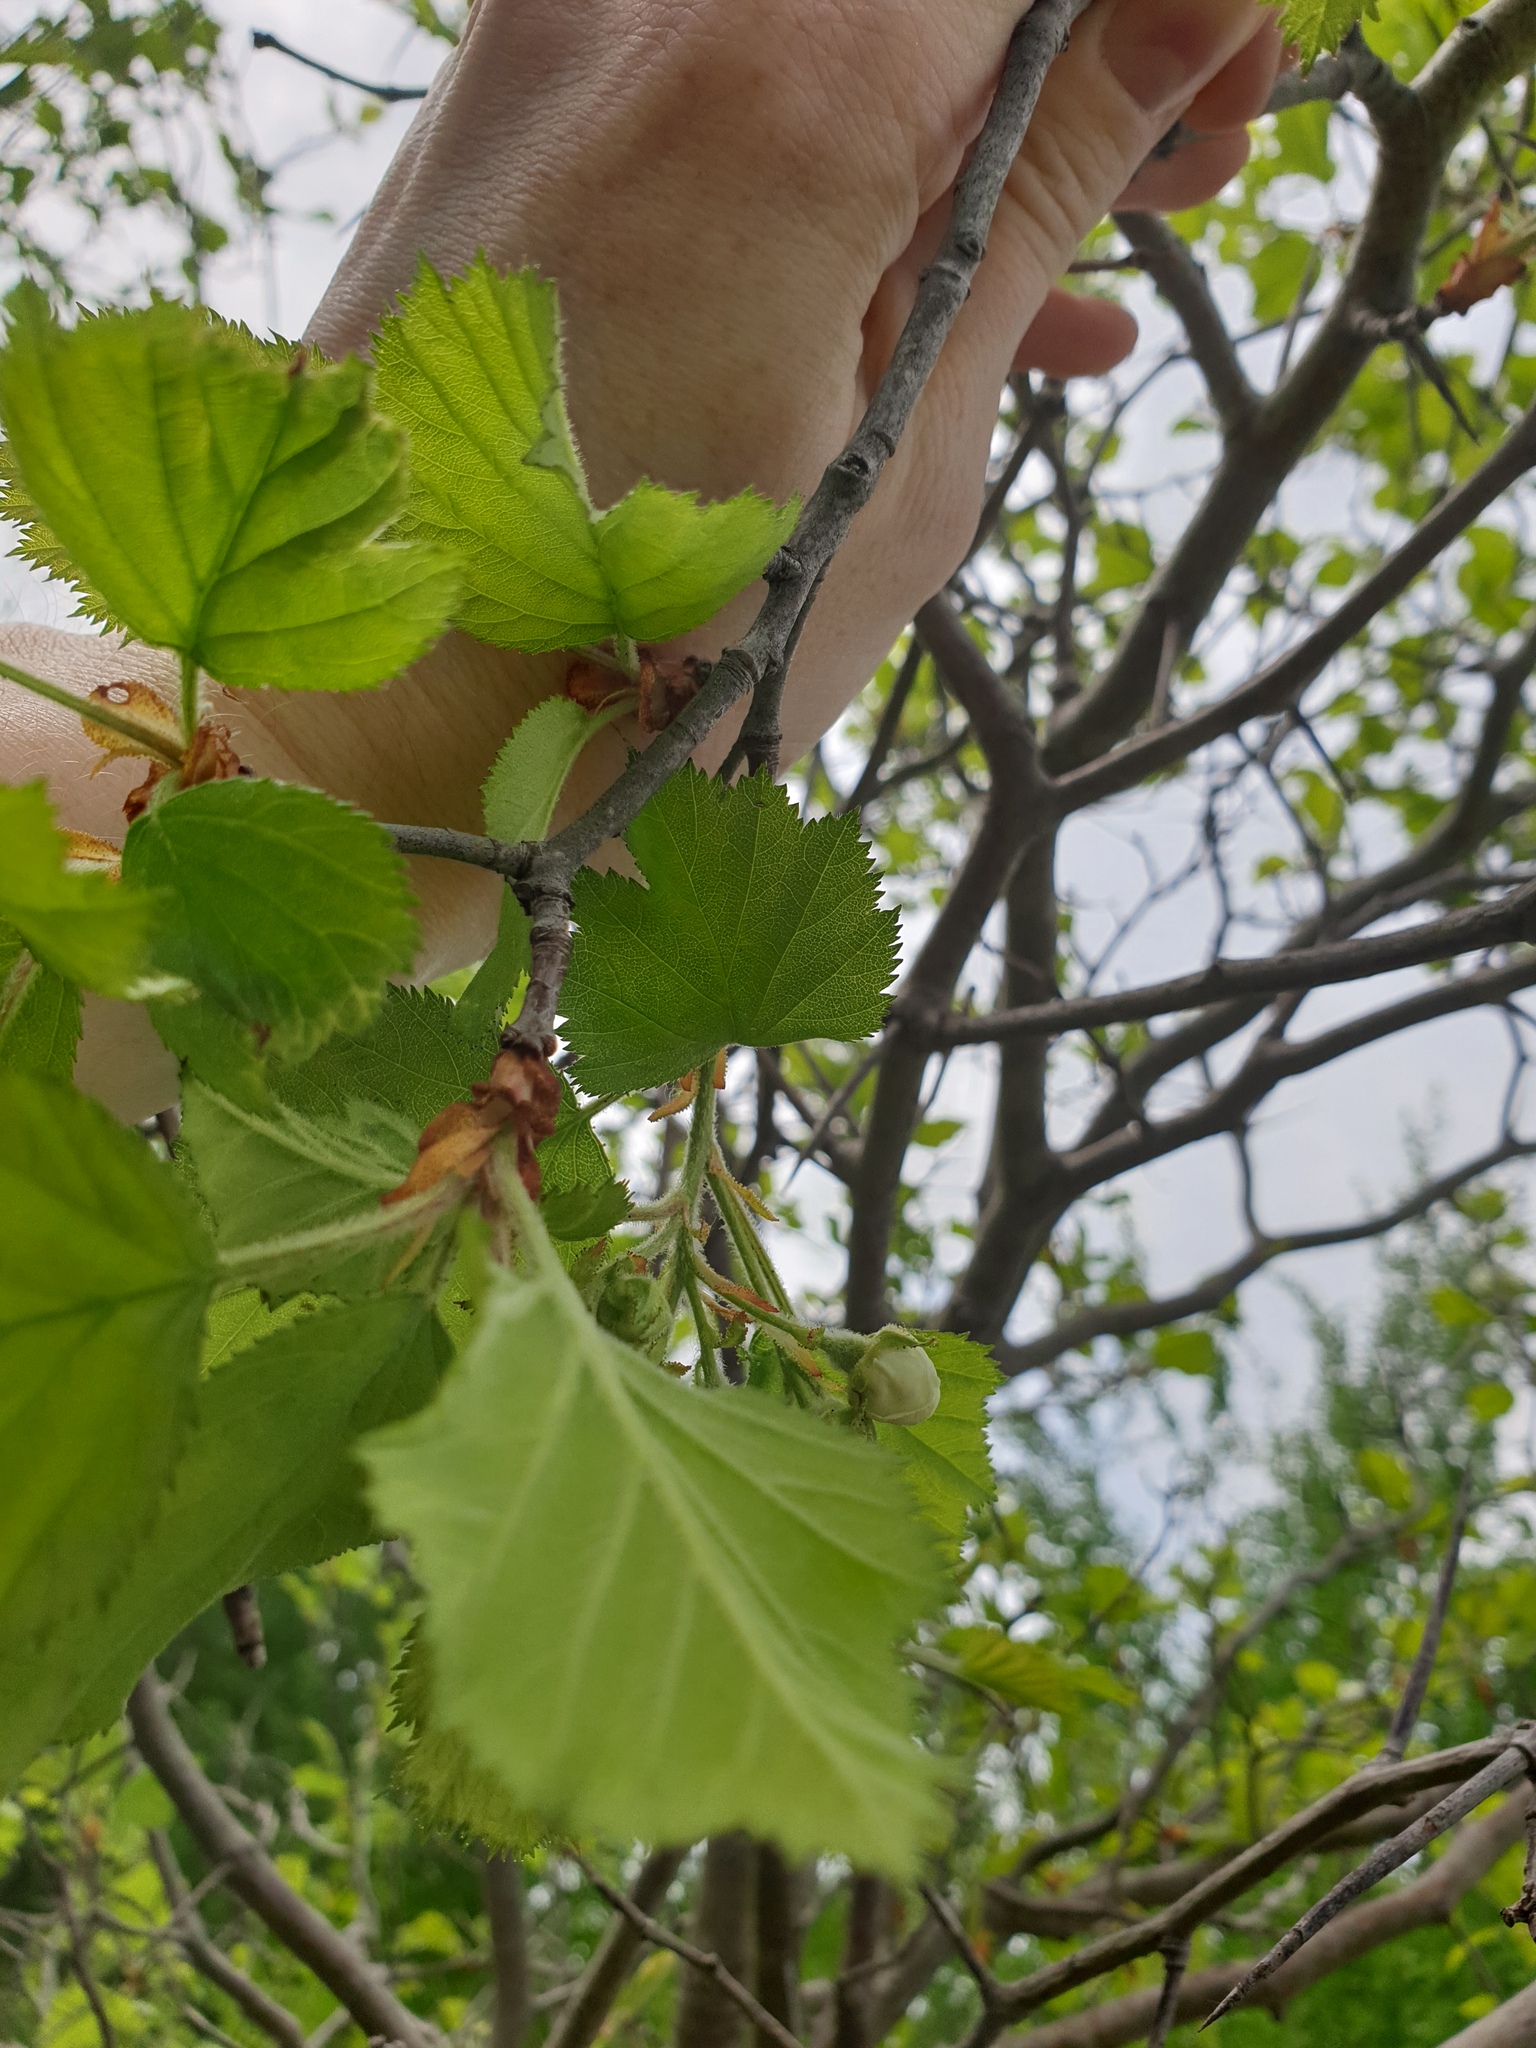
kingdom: Plantae
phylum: Tracheophyta
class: Magnoliopsida
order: Rosales
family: Rosaceae
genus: Crataegus
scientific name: Crataegus submollis
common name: Hairy cockspurthorn
